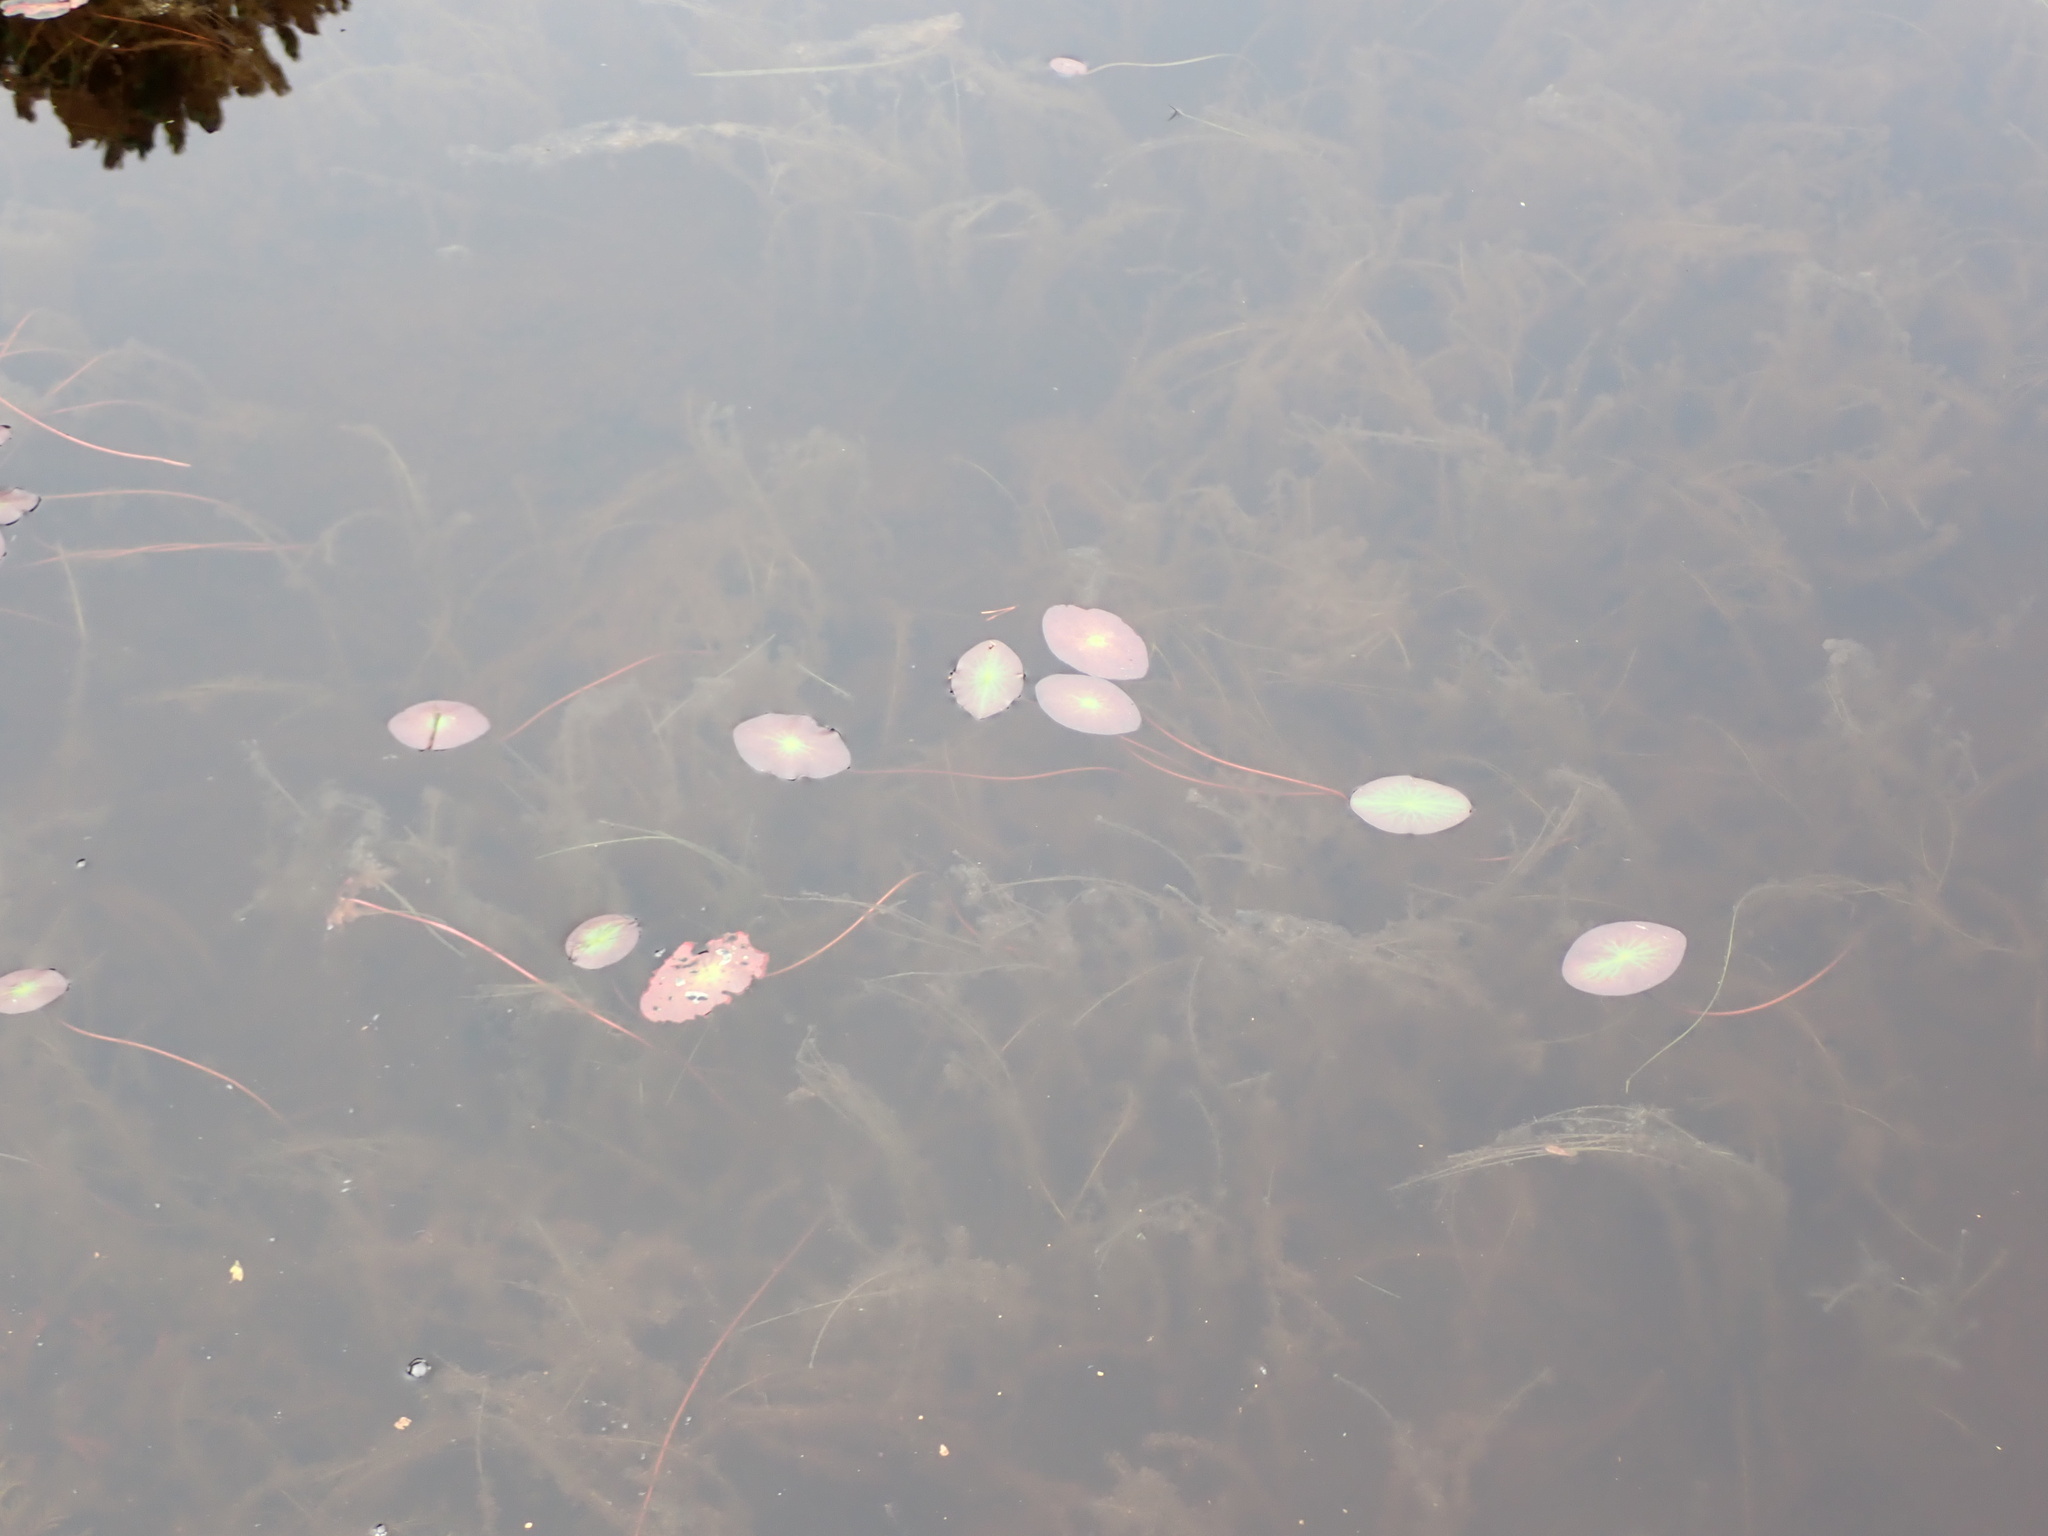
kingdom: Plantae
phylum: Tracheophyta
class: Magnoliopsida
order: Nymphaeales
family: Cabombaceae
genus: Brasenia
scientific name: Brasenia schreberi
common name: Water-shield
